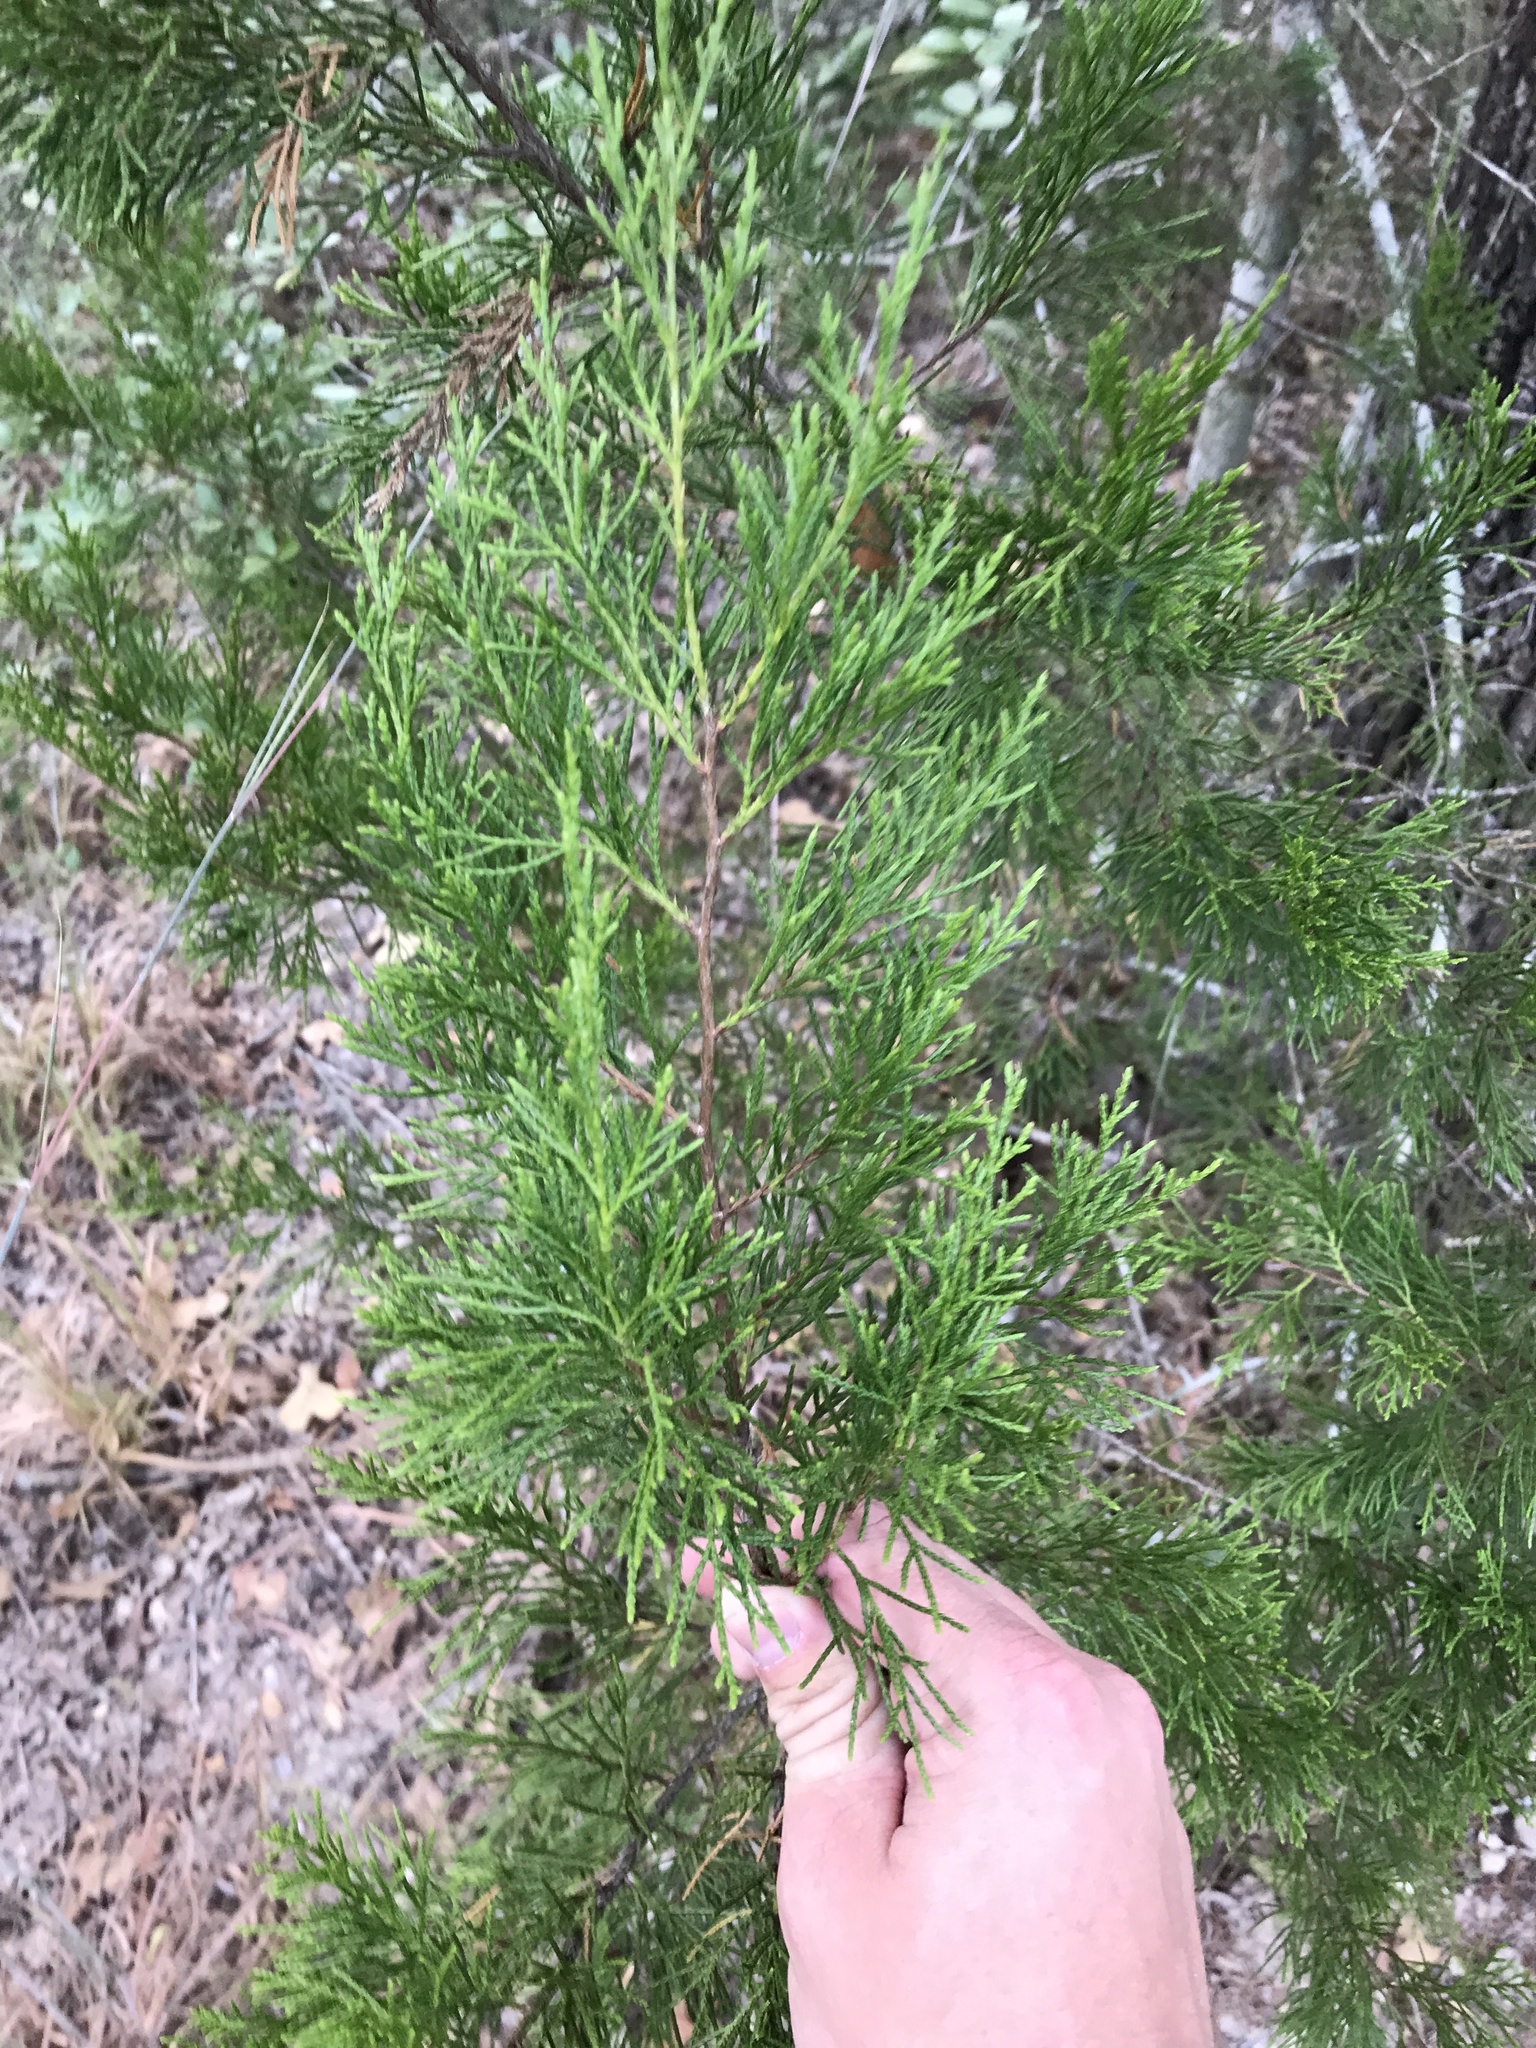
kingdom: Plantae
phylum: Tracheophyta
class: Pinopsida
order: Pinales
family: Cupressaceae
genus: Juniperus
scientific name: Juniperus virginiana
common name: Red juniper
